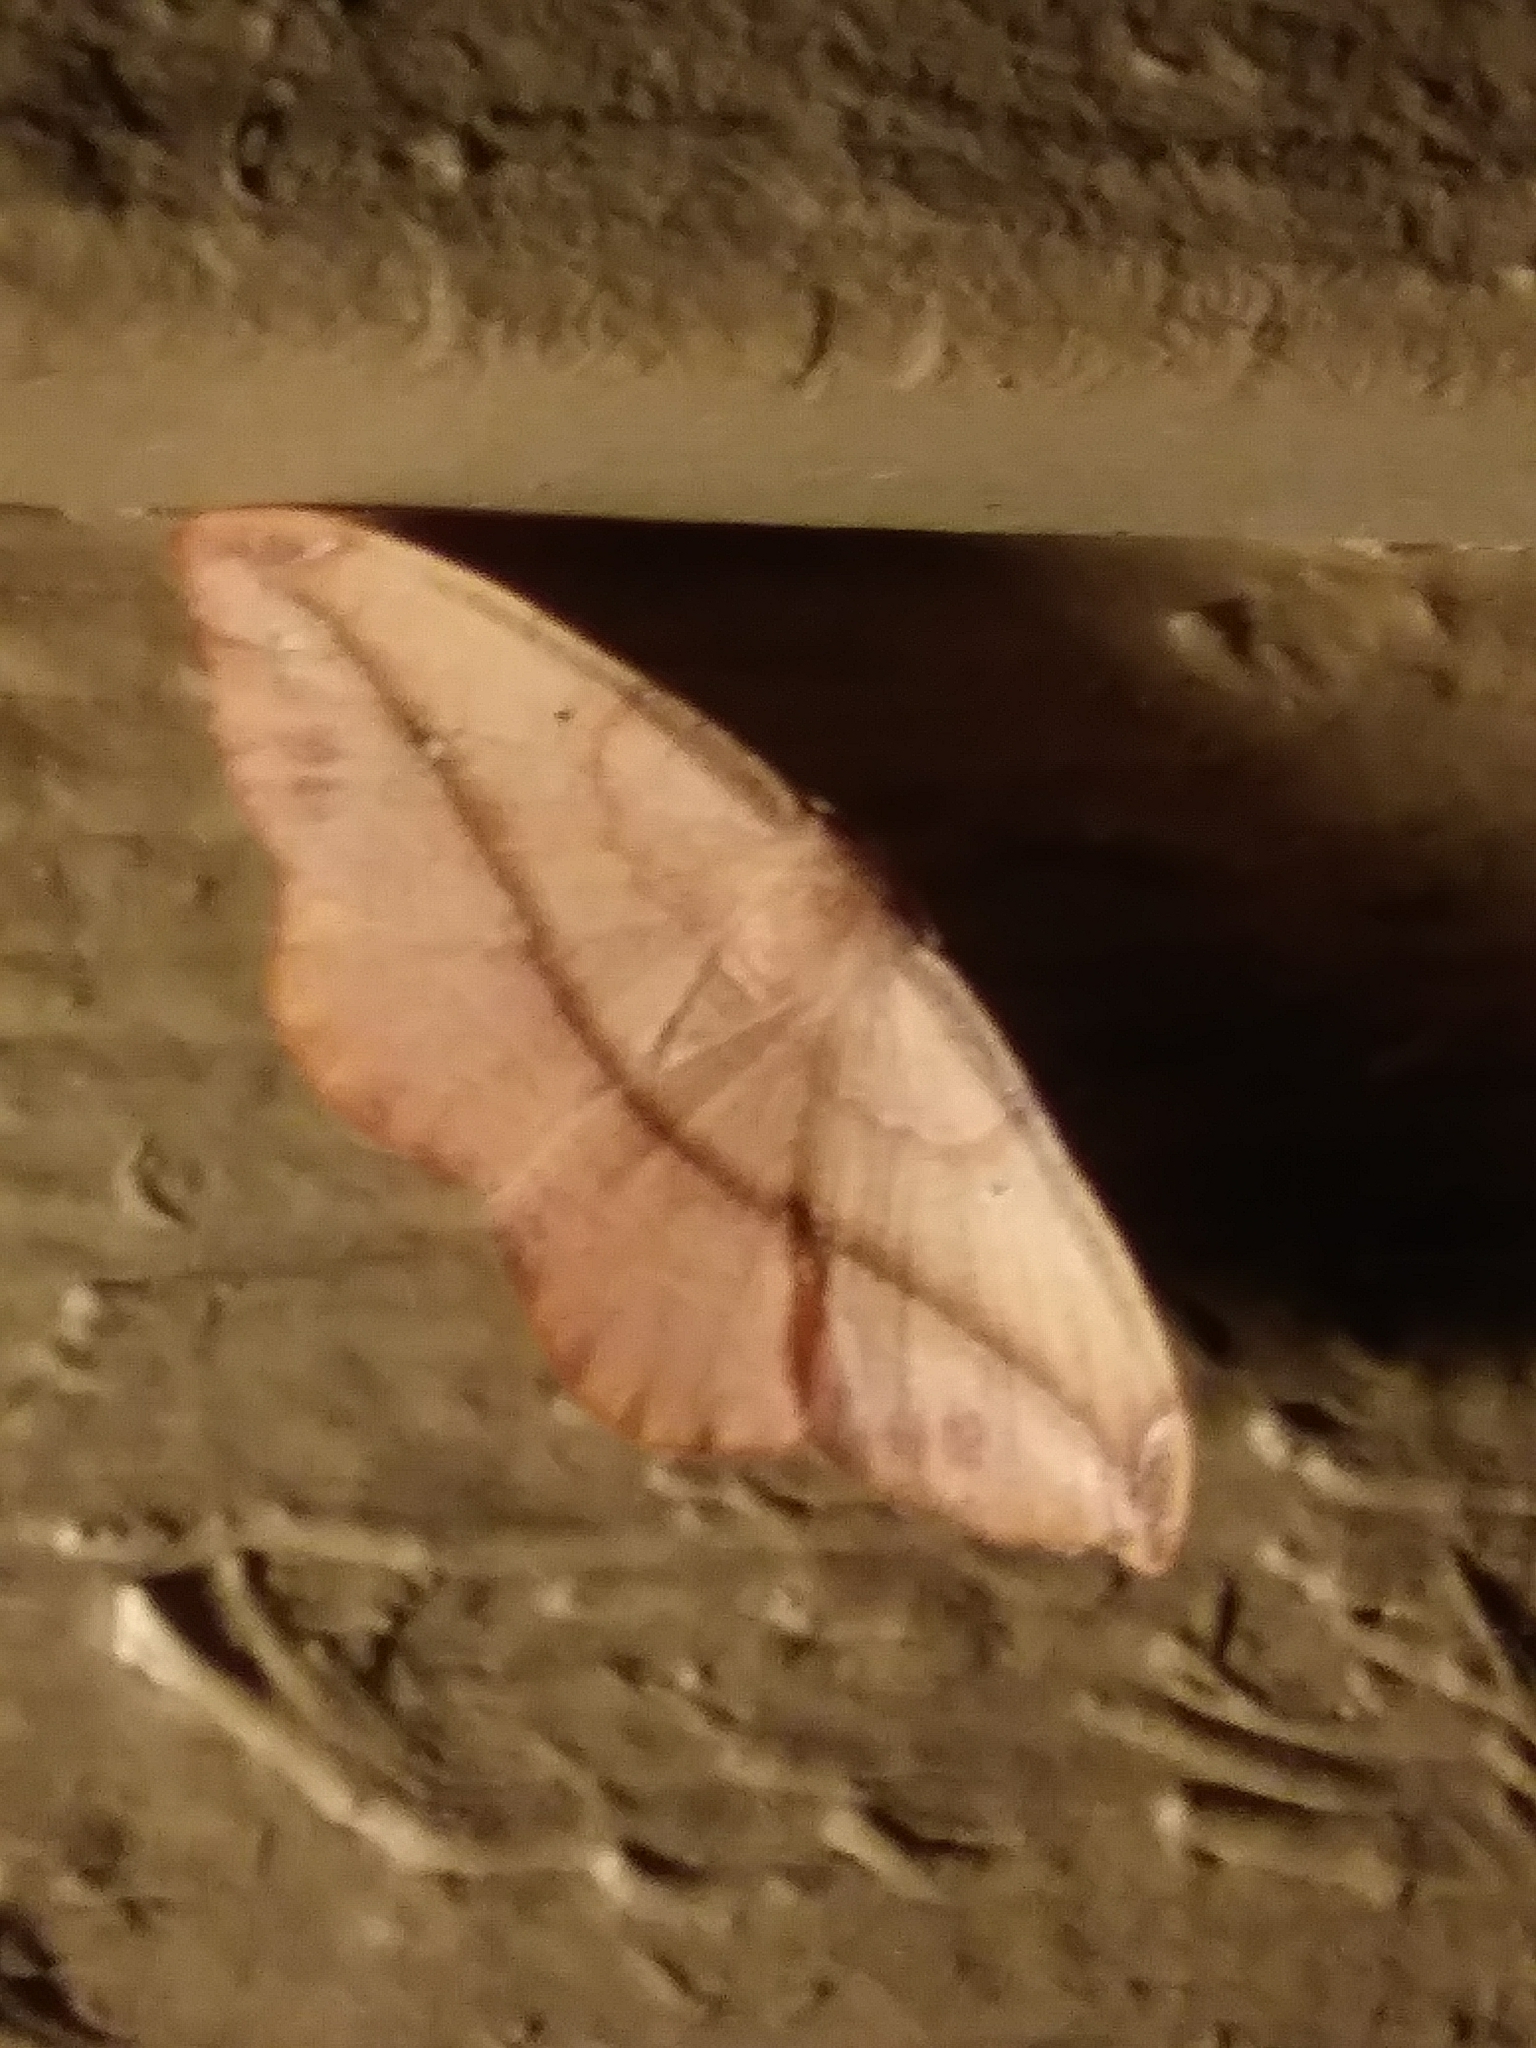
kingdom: Animalia
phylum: Arthropoda
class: Insecta
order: Lepidoptera
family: Geometridae
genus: Patalene
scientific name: Patalene olyzonaria
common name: Juniper geometer moth
